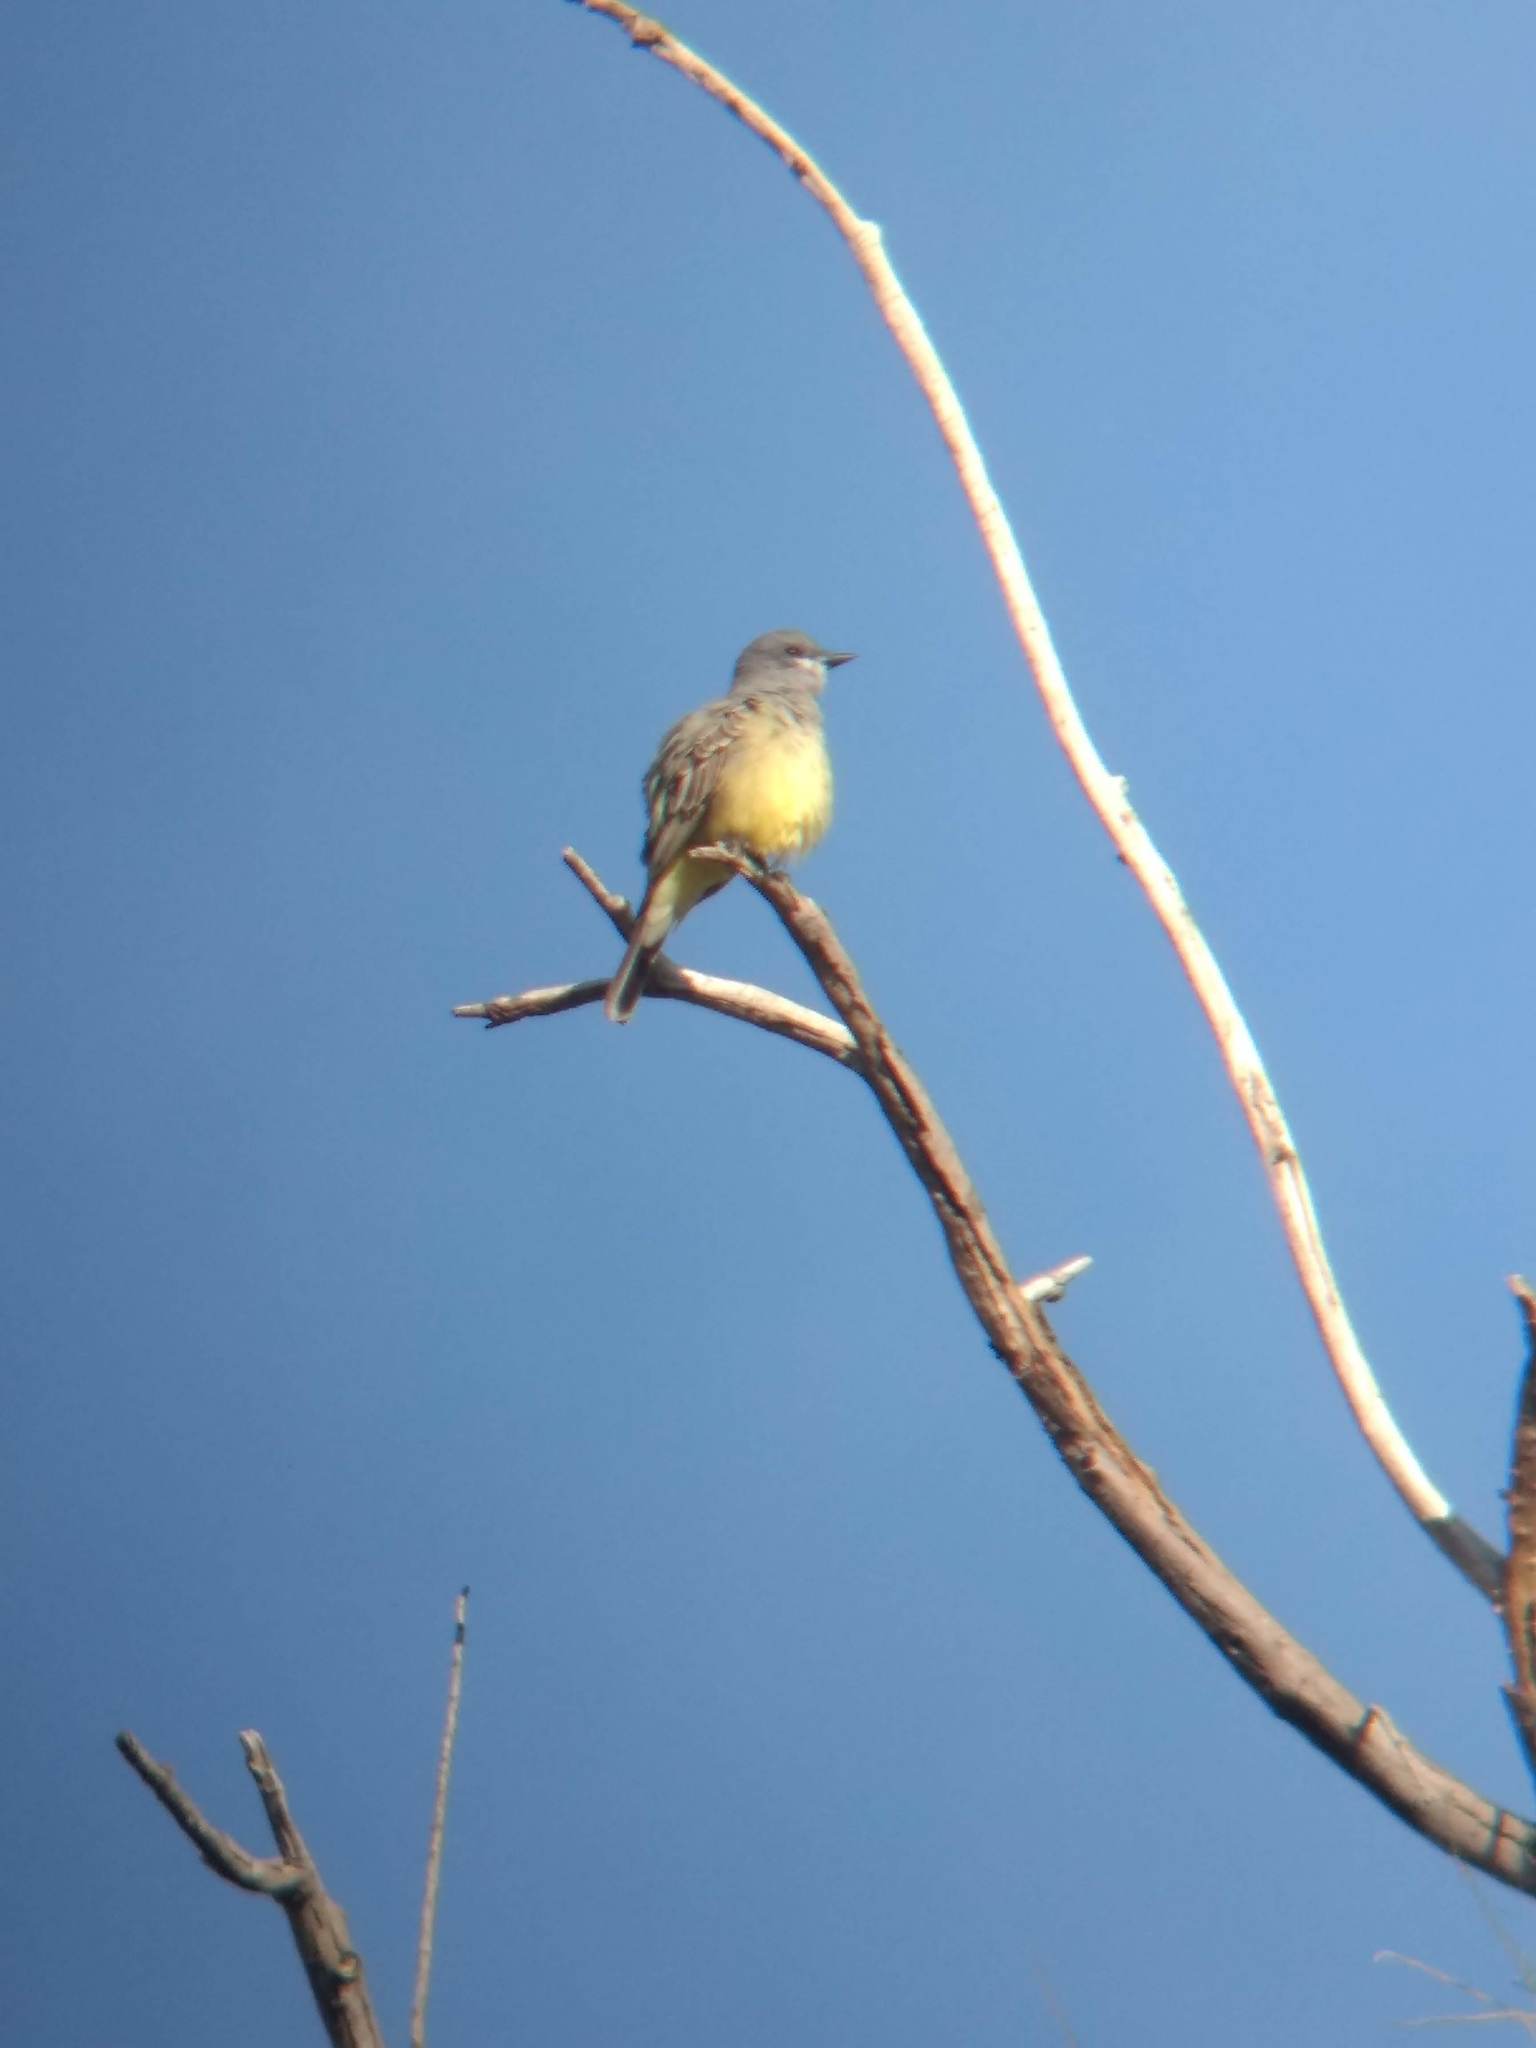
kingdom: Animalia
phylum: Chordata
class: Aves
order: Passeriformes
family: Tyrannidae
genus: Tyrannus
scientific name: Tyrannus vociferans
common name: Cassin's kingbird
